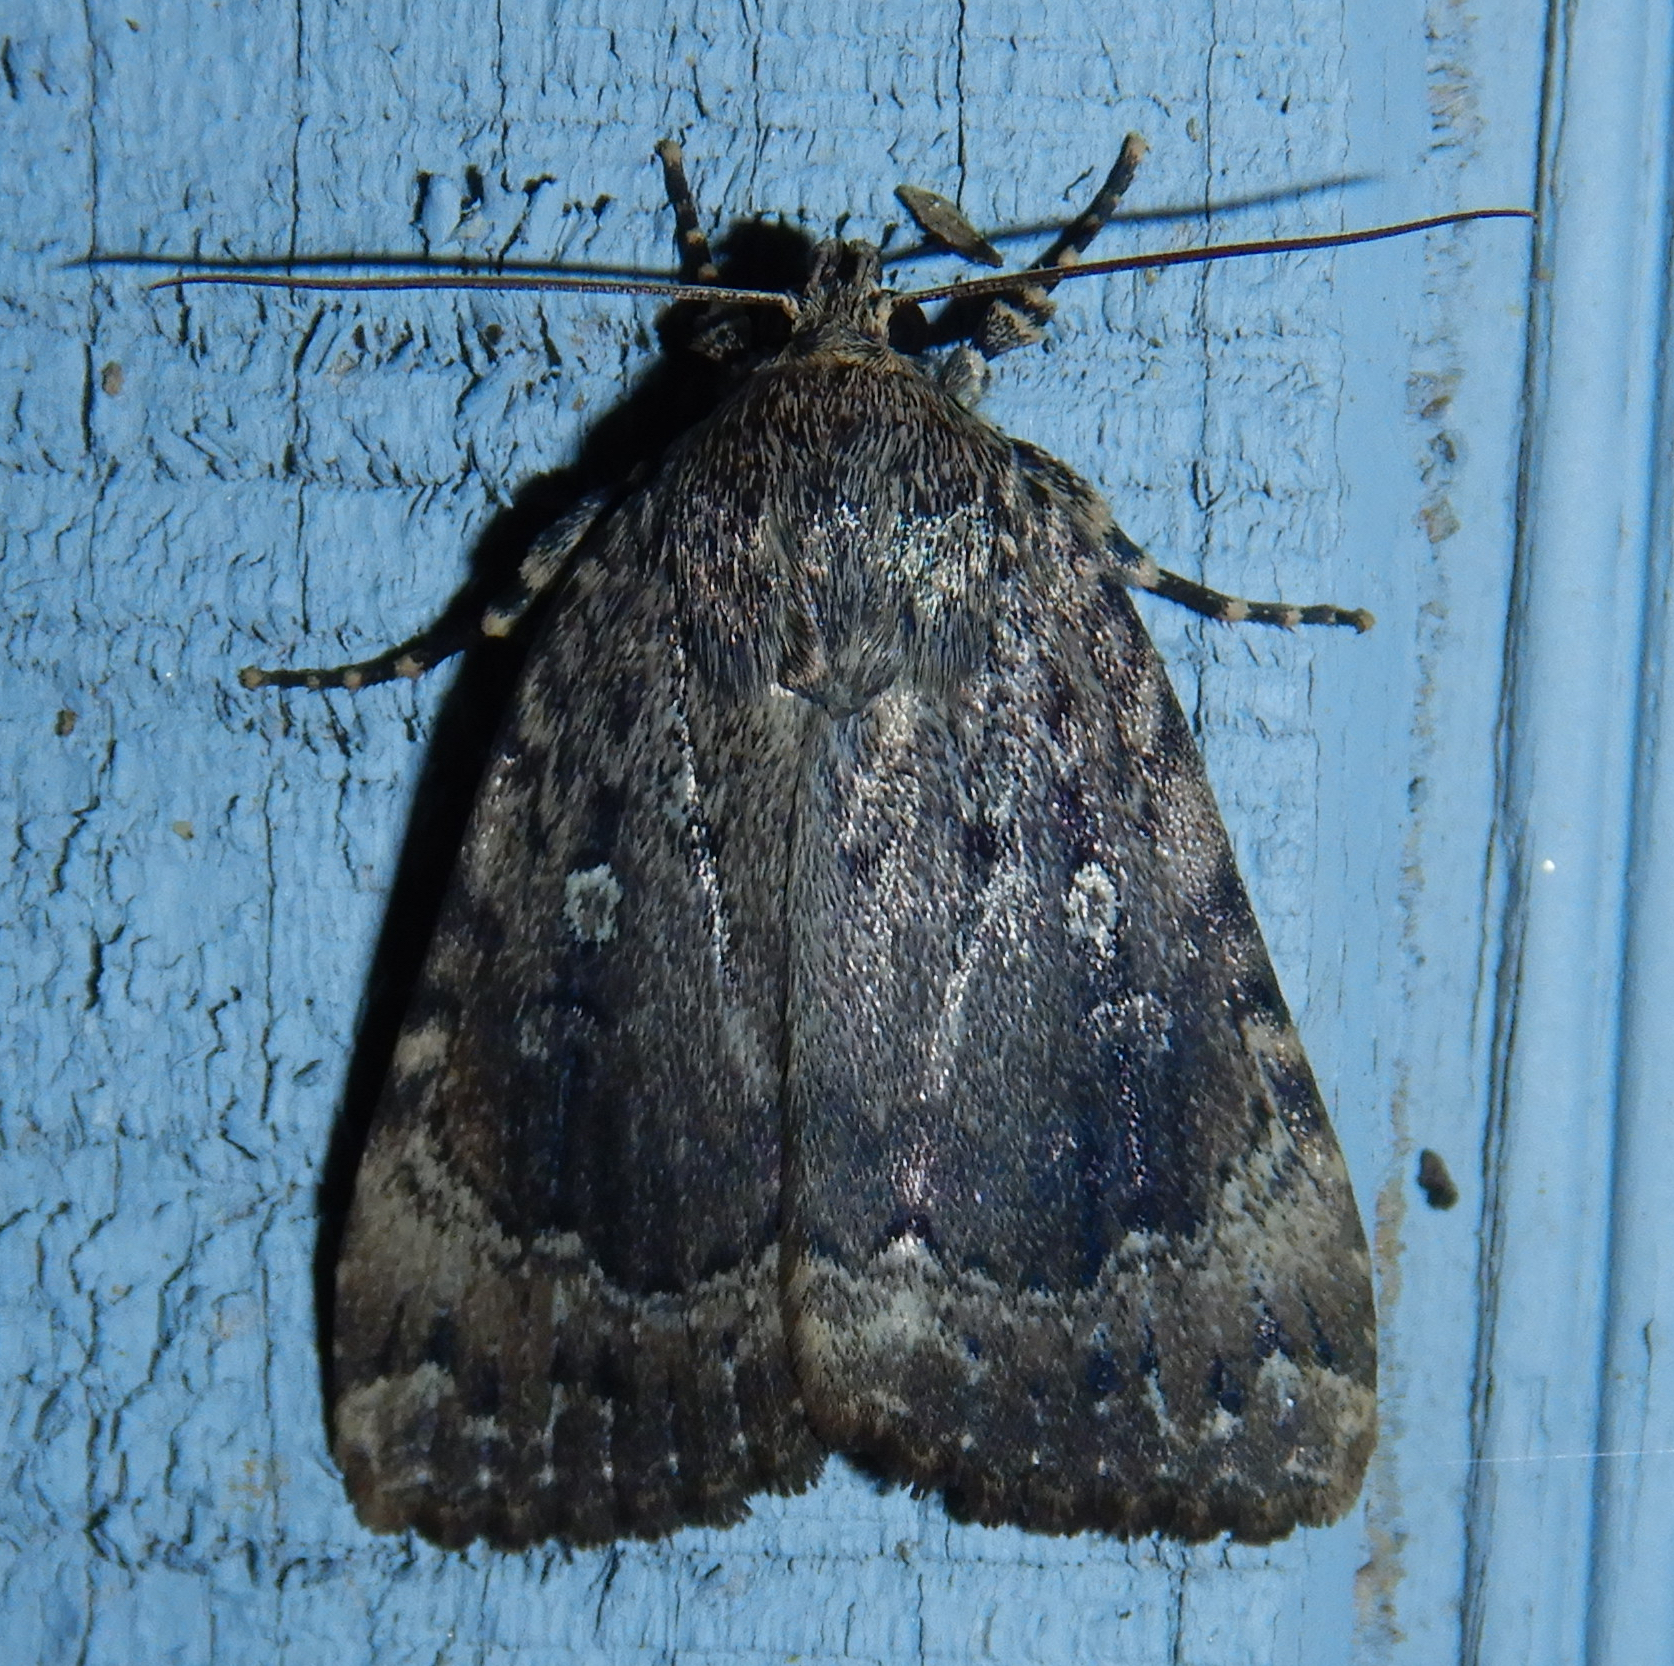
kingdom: Animalia
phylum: Arthropoda
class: Insecta
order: Lepidoptera
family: Noctuidae
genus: Amphipyra
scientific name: Amphipyra pyramidoides
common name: American copper underwing
